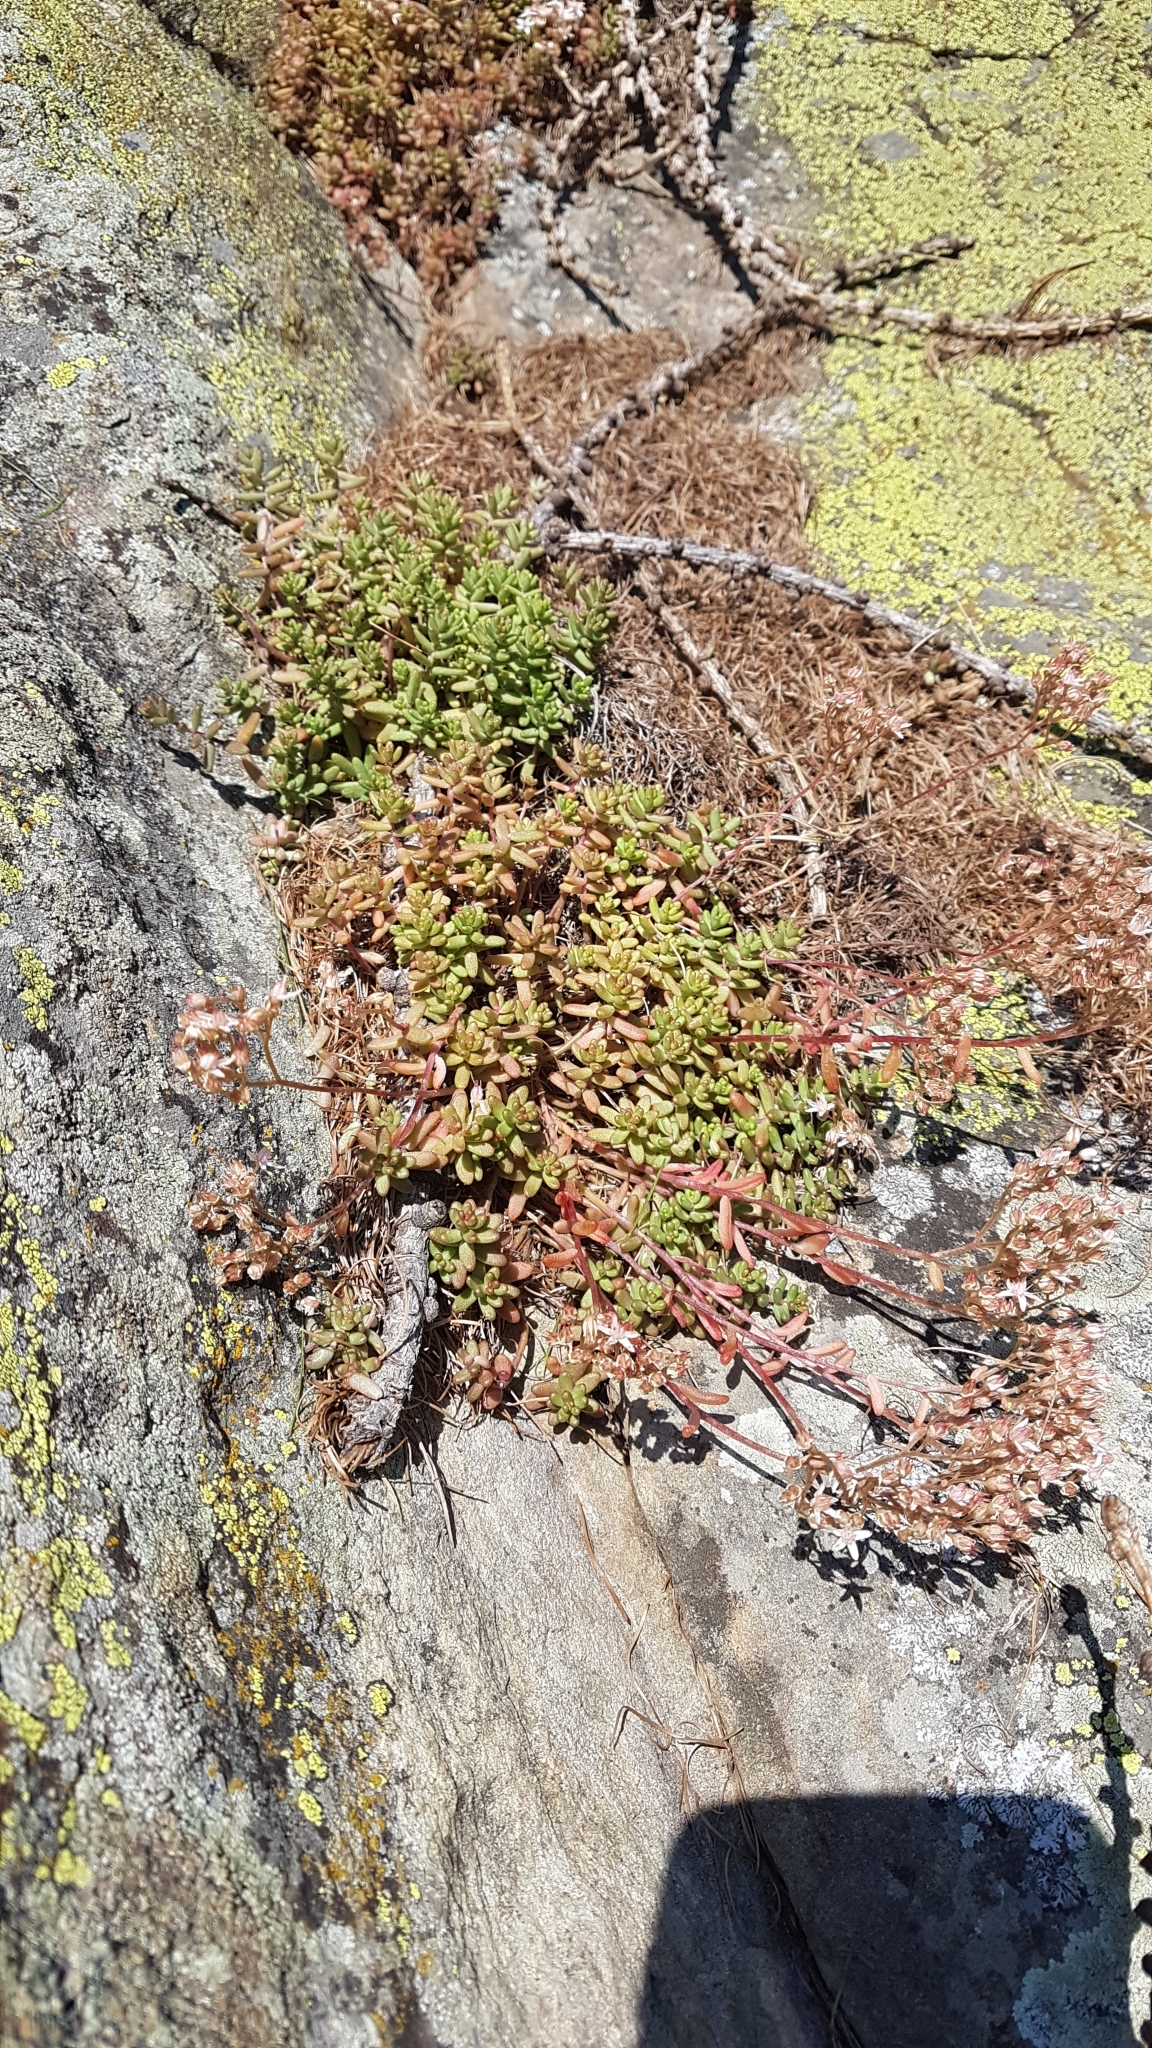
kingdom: Plantae
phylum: Tracheophyta
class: Magnoliopsida
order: Saxifragales
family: Crassulaceae
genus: Sedum
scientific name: Sedum album
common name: White stonecrop
